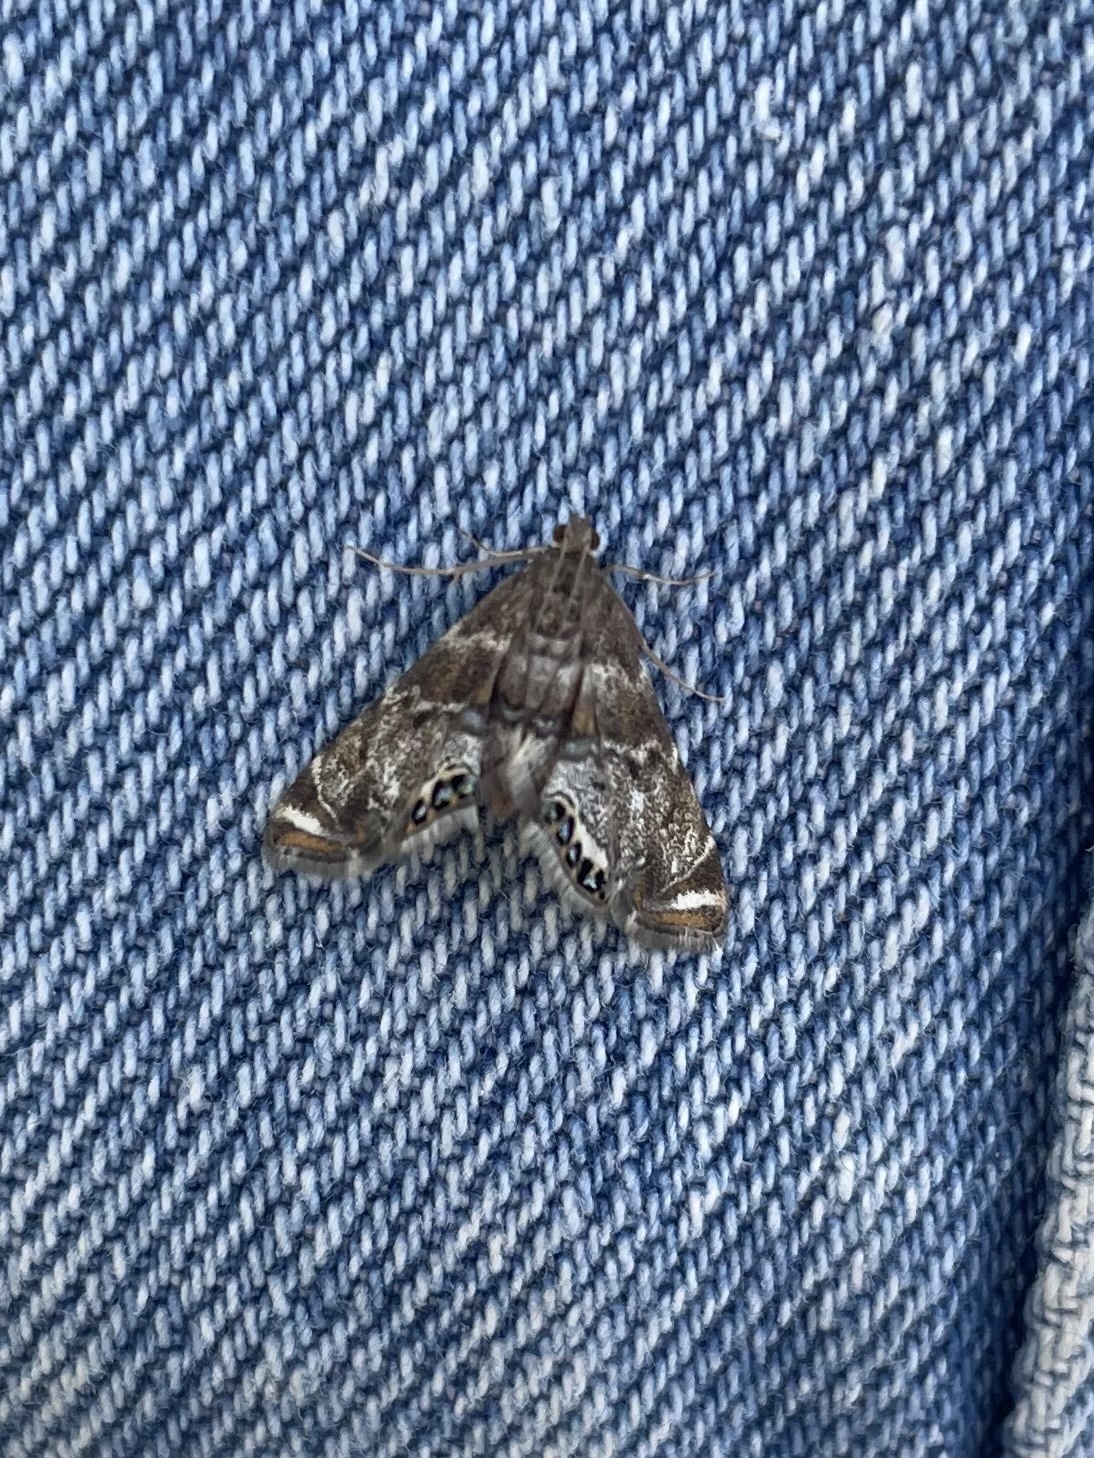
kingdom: Animalia
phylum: Arthropoda
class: Insecta
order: Lepidoptera
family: Crambidae
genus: Petrophila
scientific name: Petrophila confusalis
